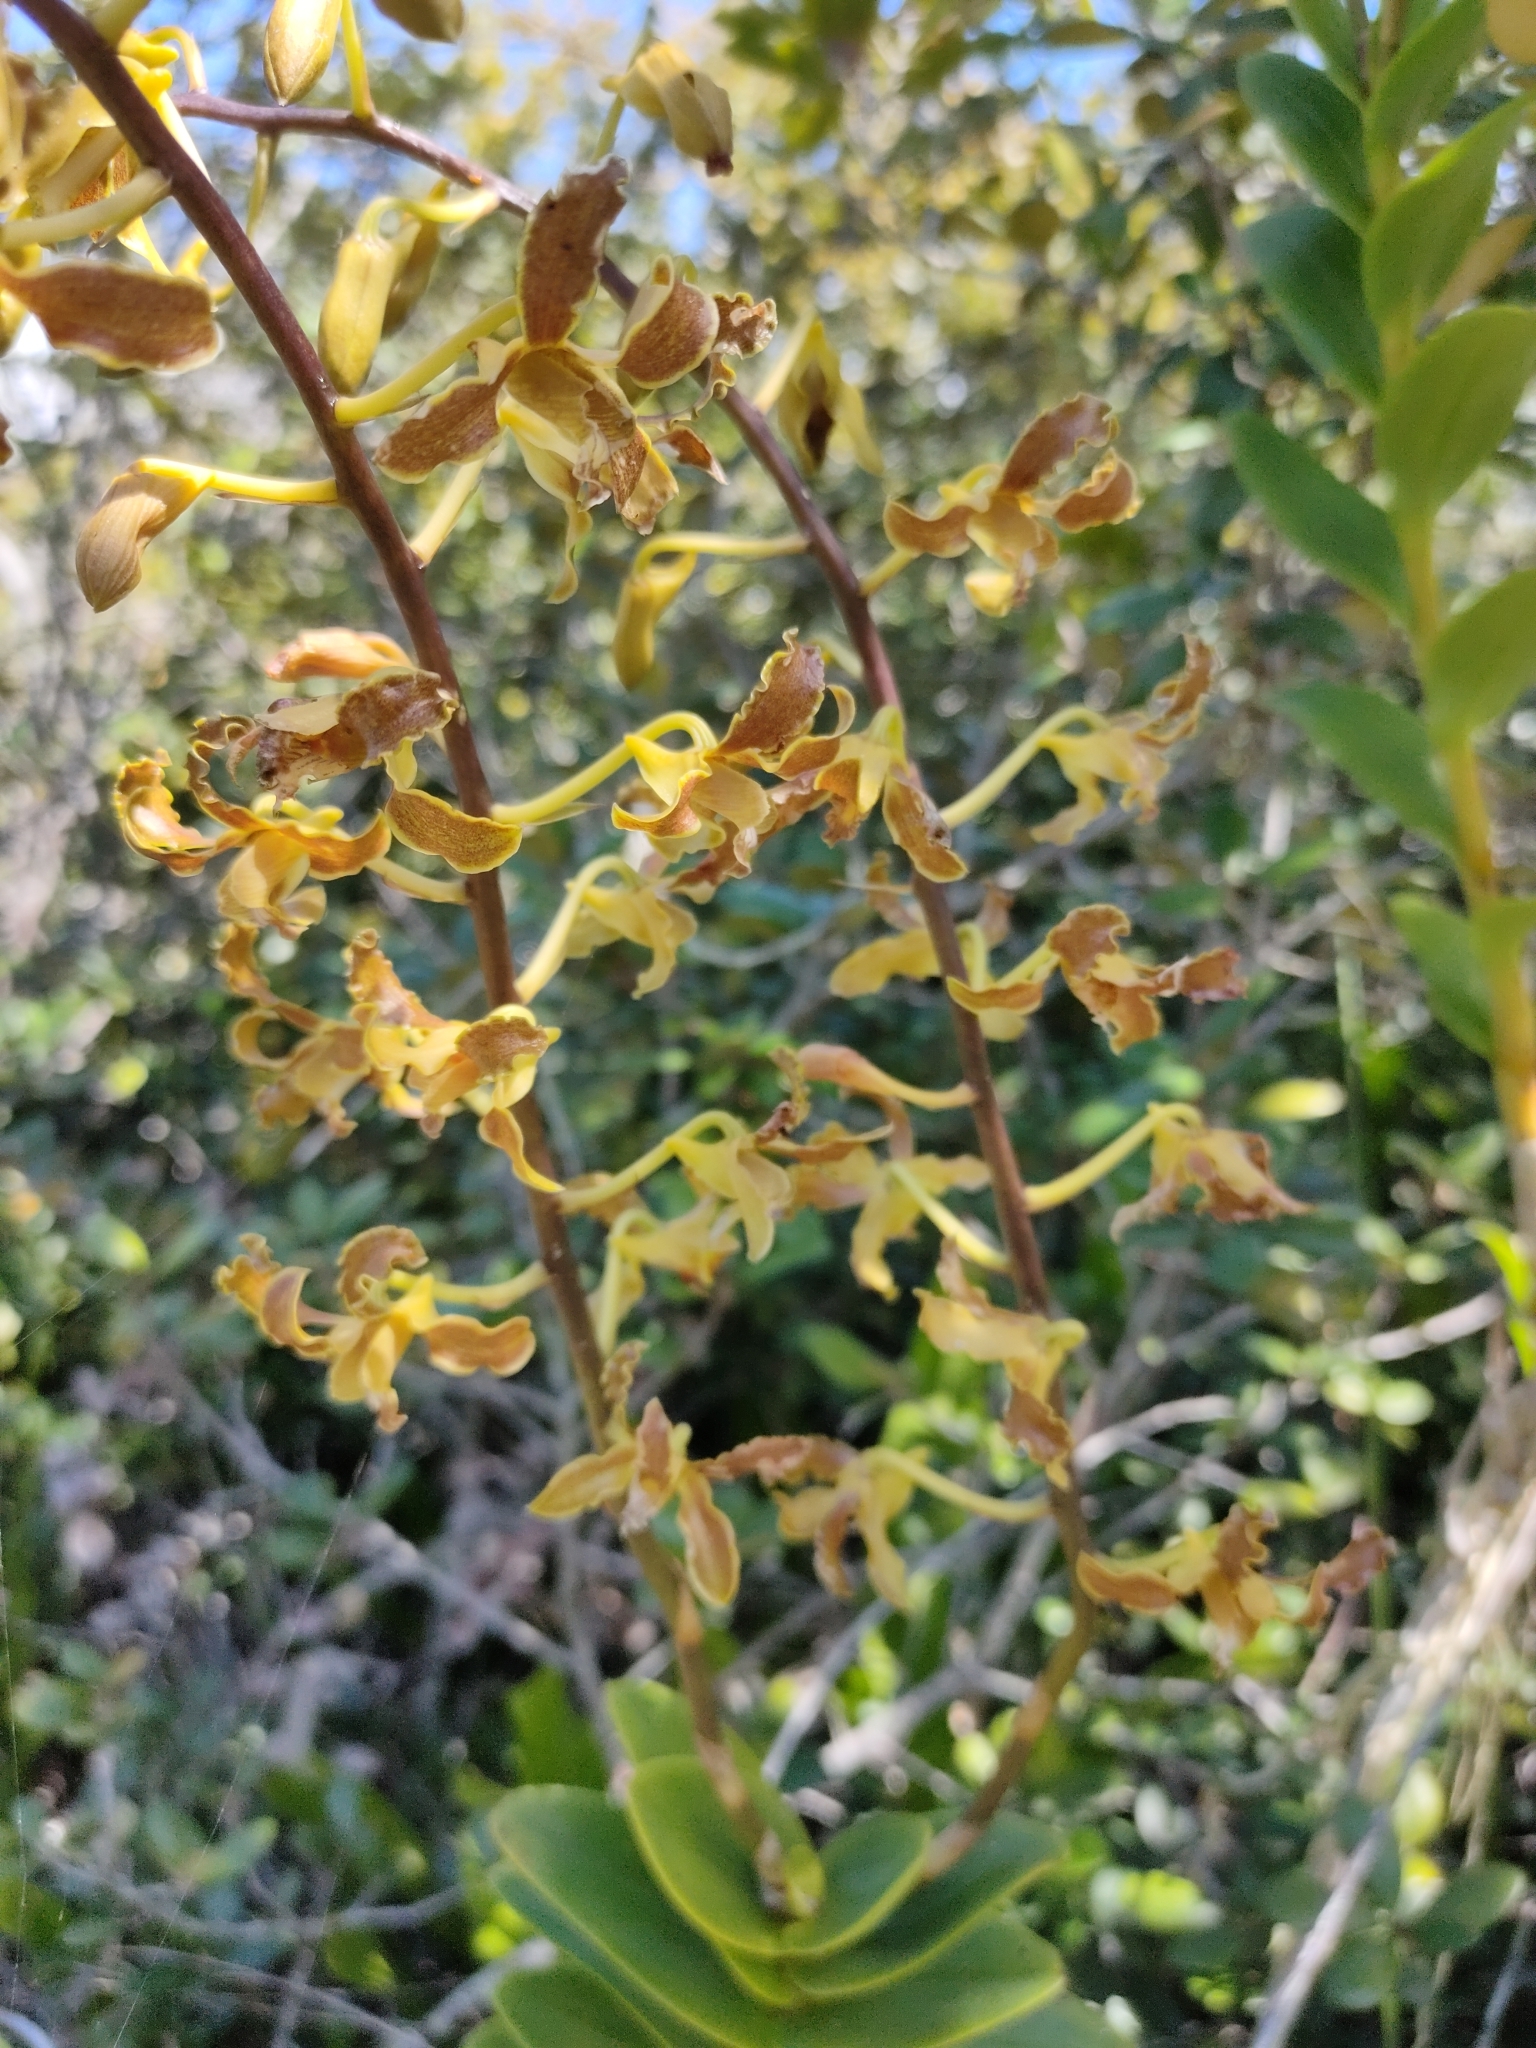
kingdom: Plantae
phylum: Tracheophyta
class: Liliopsida
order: Asparagales
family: Orchidaceae
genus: Dendrobium
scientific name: Dendrobium discolor
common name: Golden antler orchid
